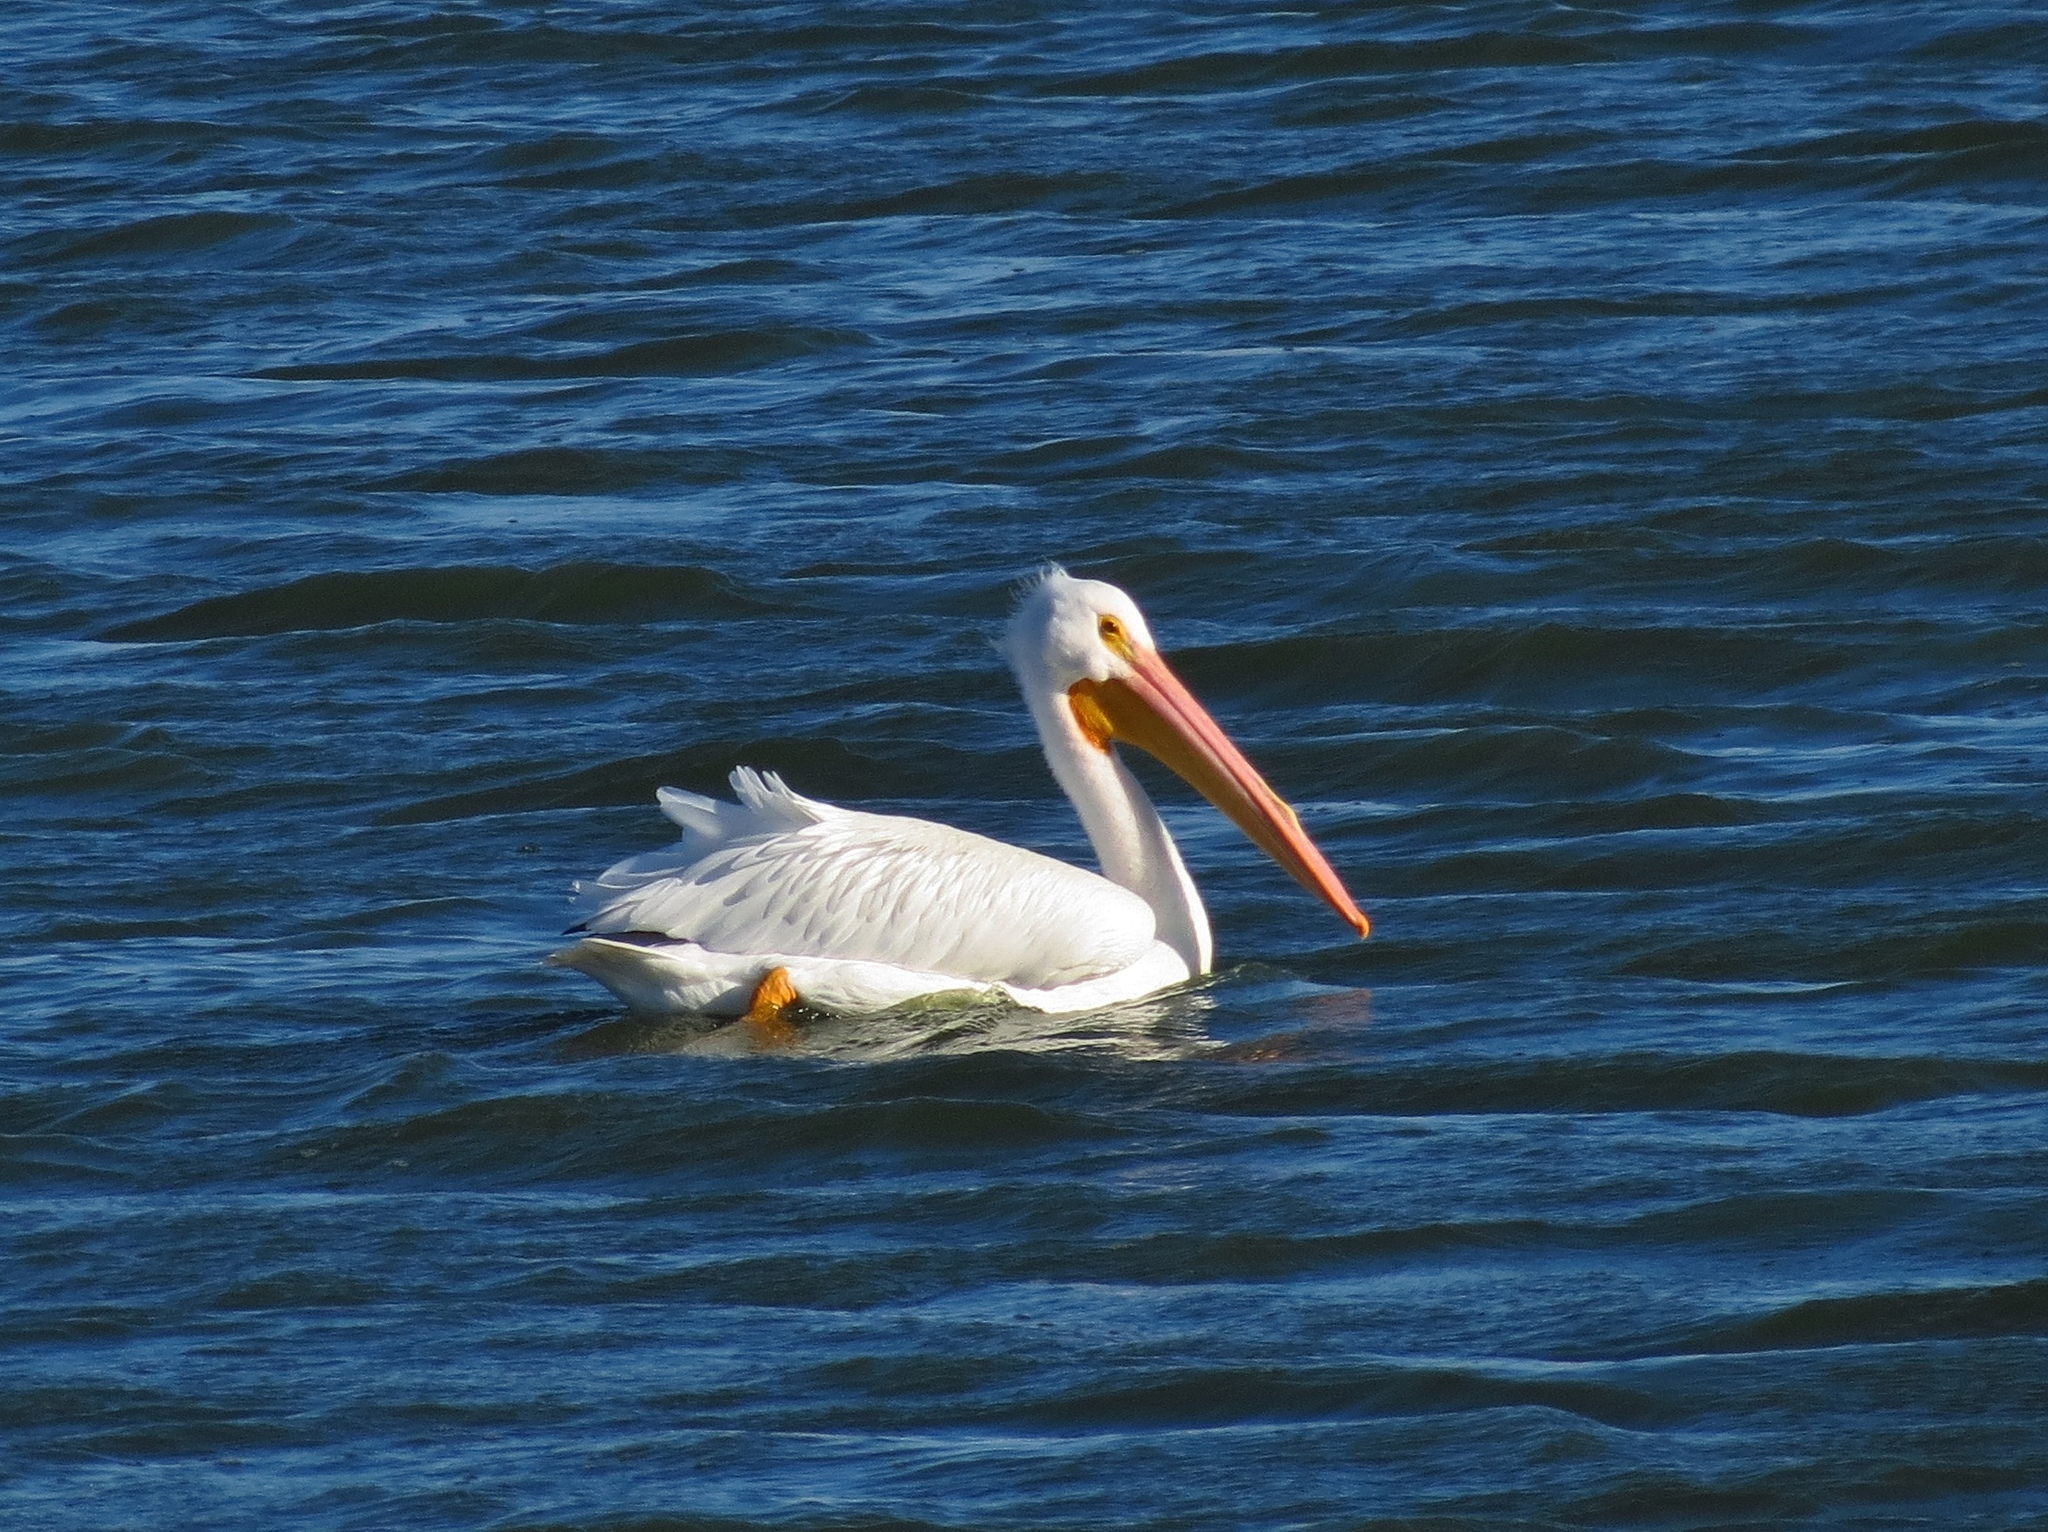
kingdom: Animalia
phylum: Chordata
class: Aves
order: Pelecaniformes
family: Pelecanidae
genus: Pelecanus
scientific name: Pelecanus erythrorhynchos
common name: American white pelican
